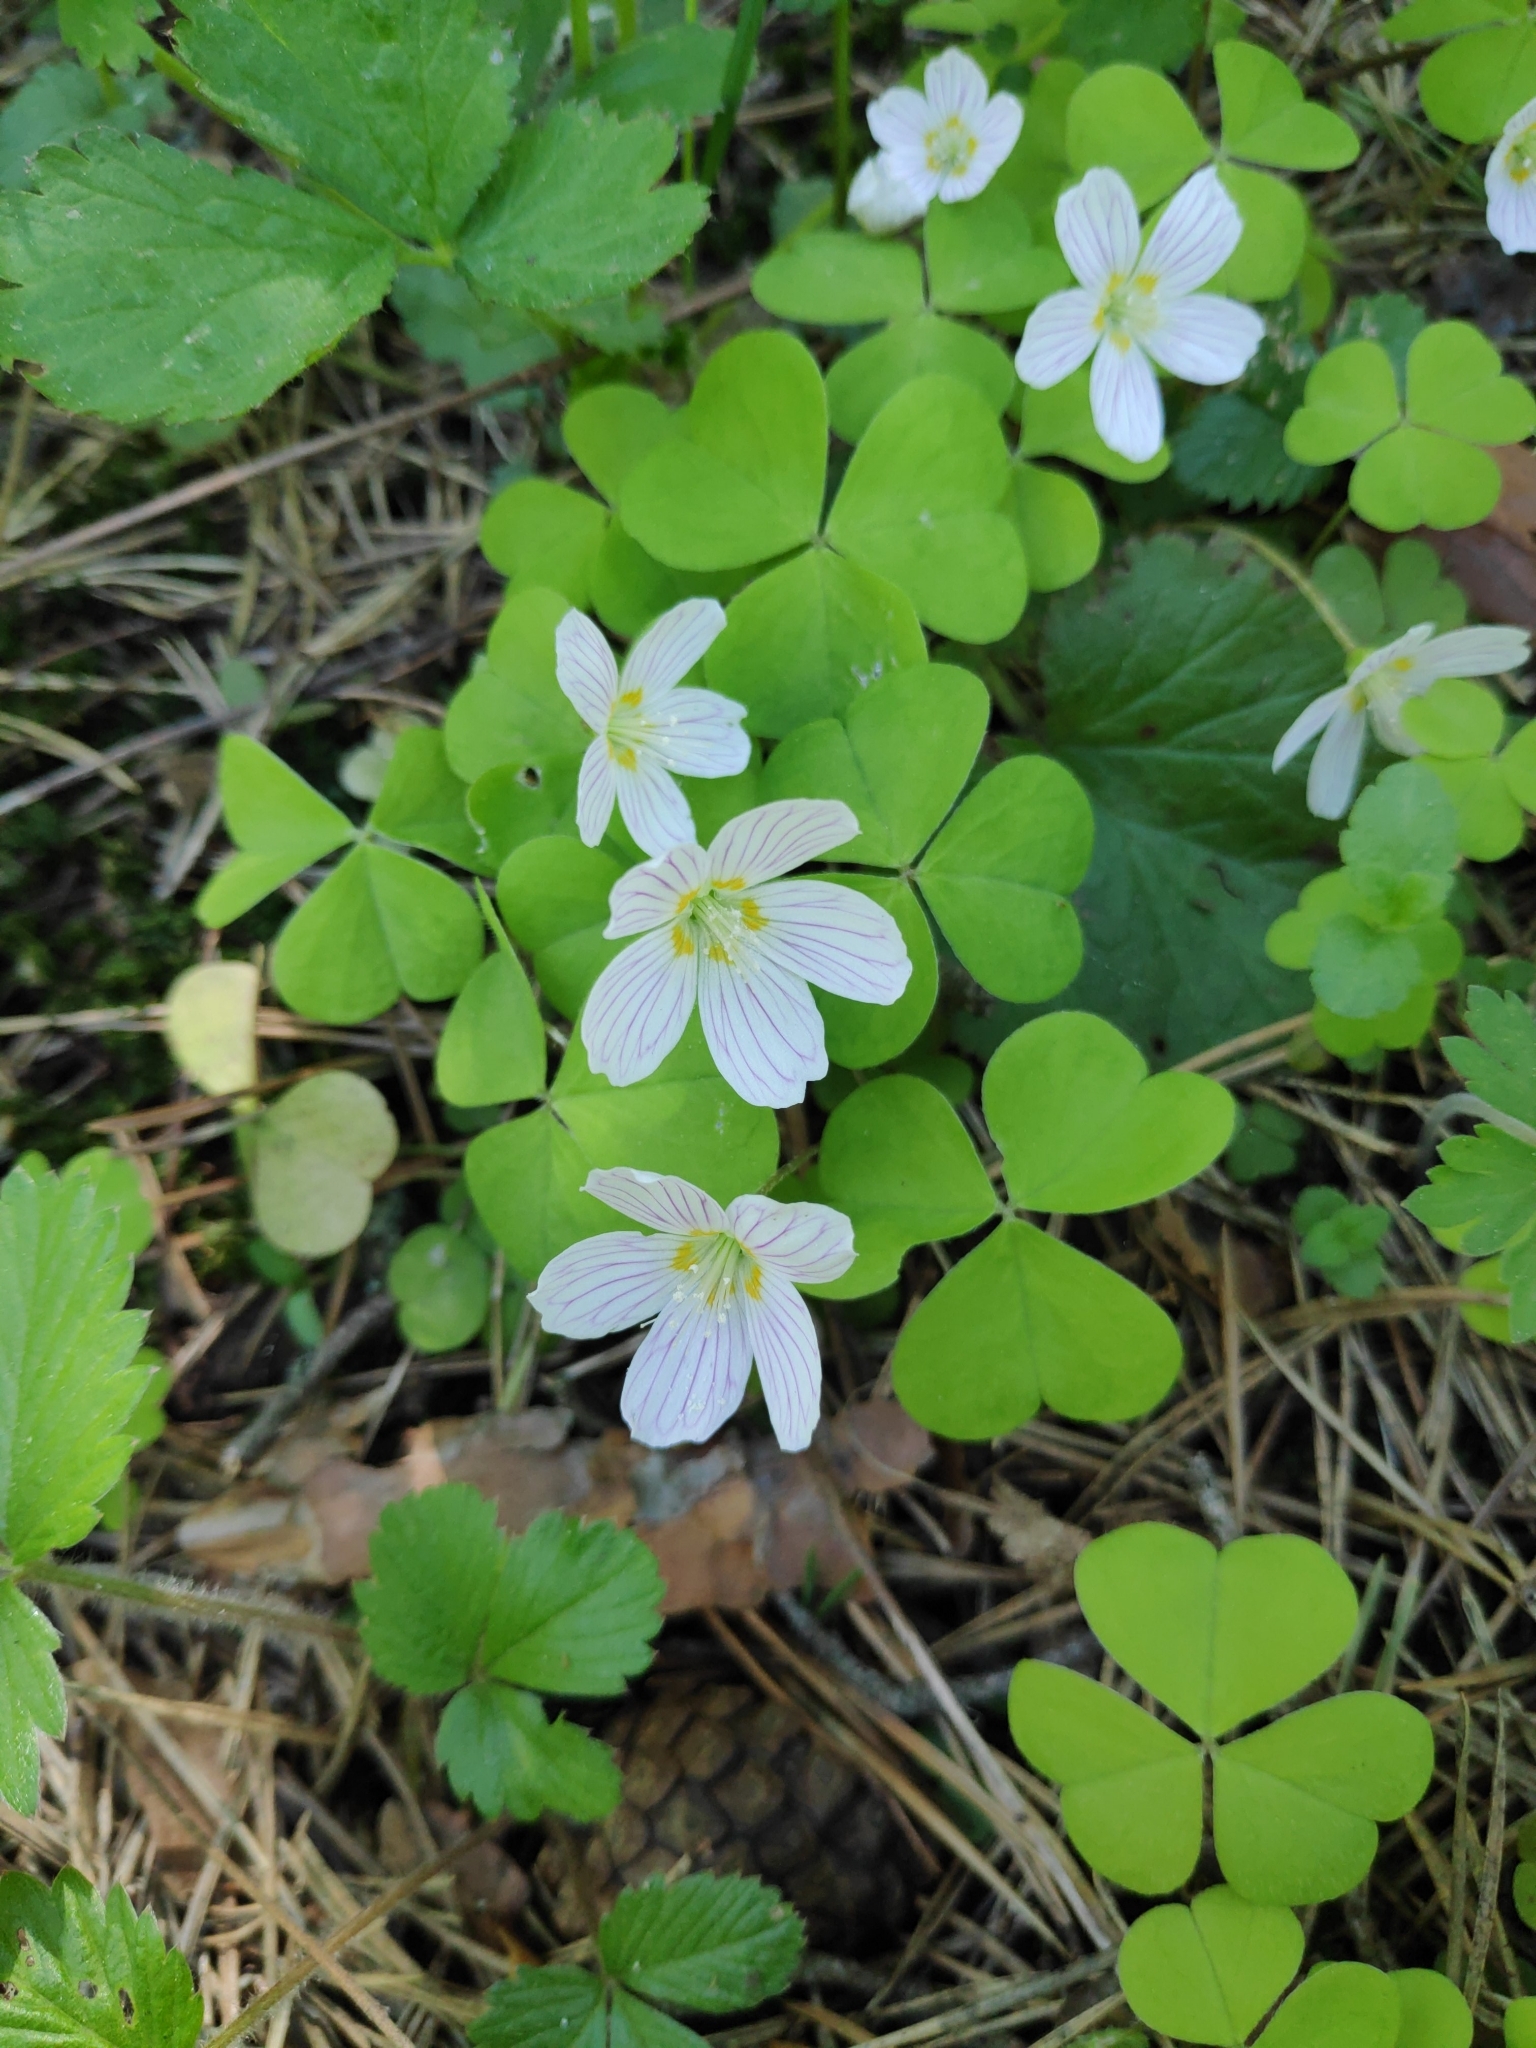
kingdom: Plantae
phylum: Tracheophyta
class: Magnoliopsida
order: Oxalidales
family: Oxalidaceae
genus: Oxalis
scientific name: Oxalis acetosella
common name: Wood-sorrel
